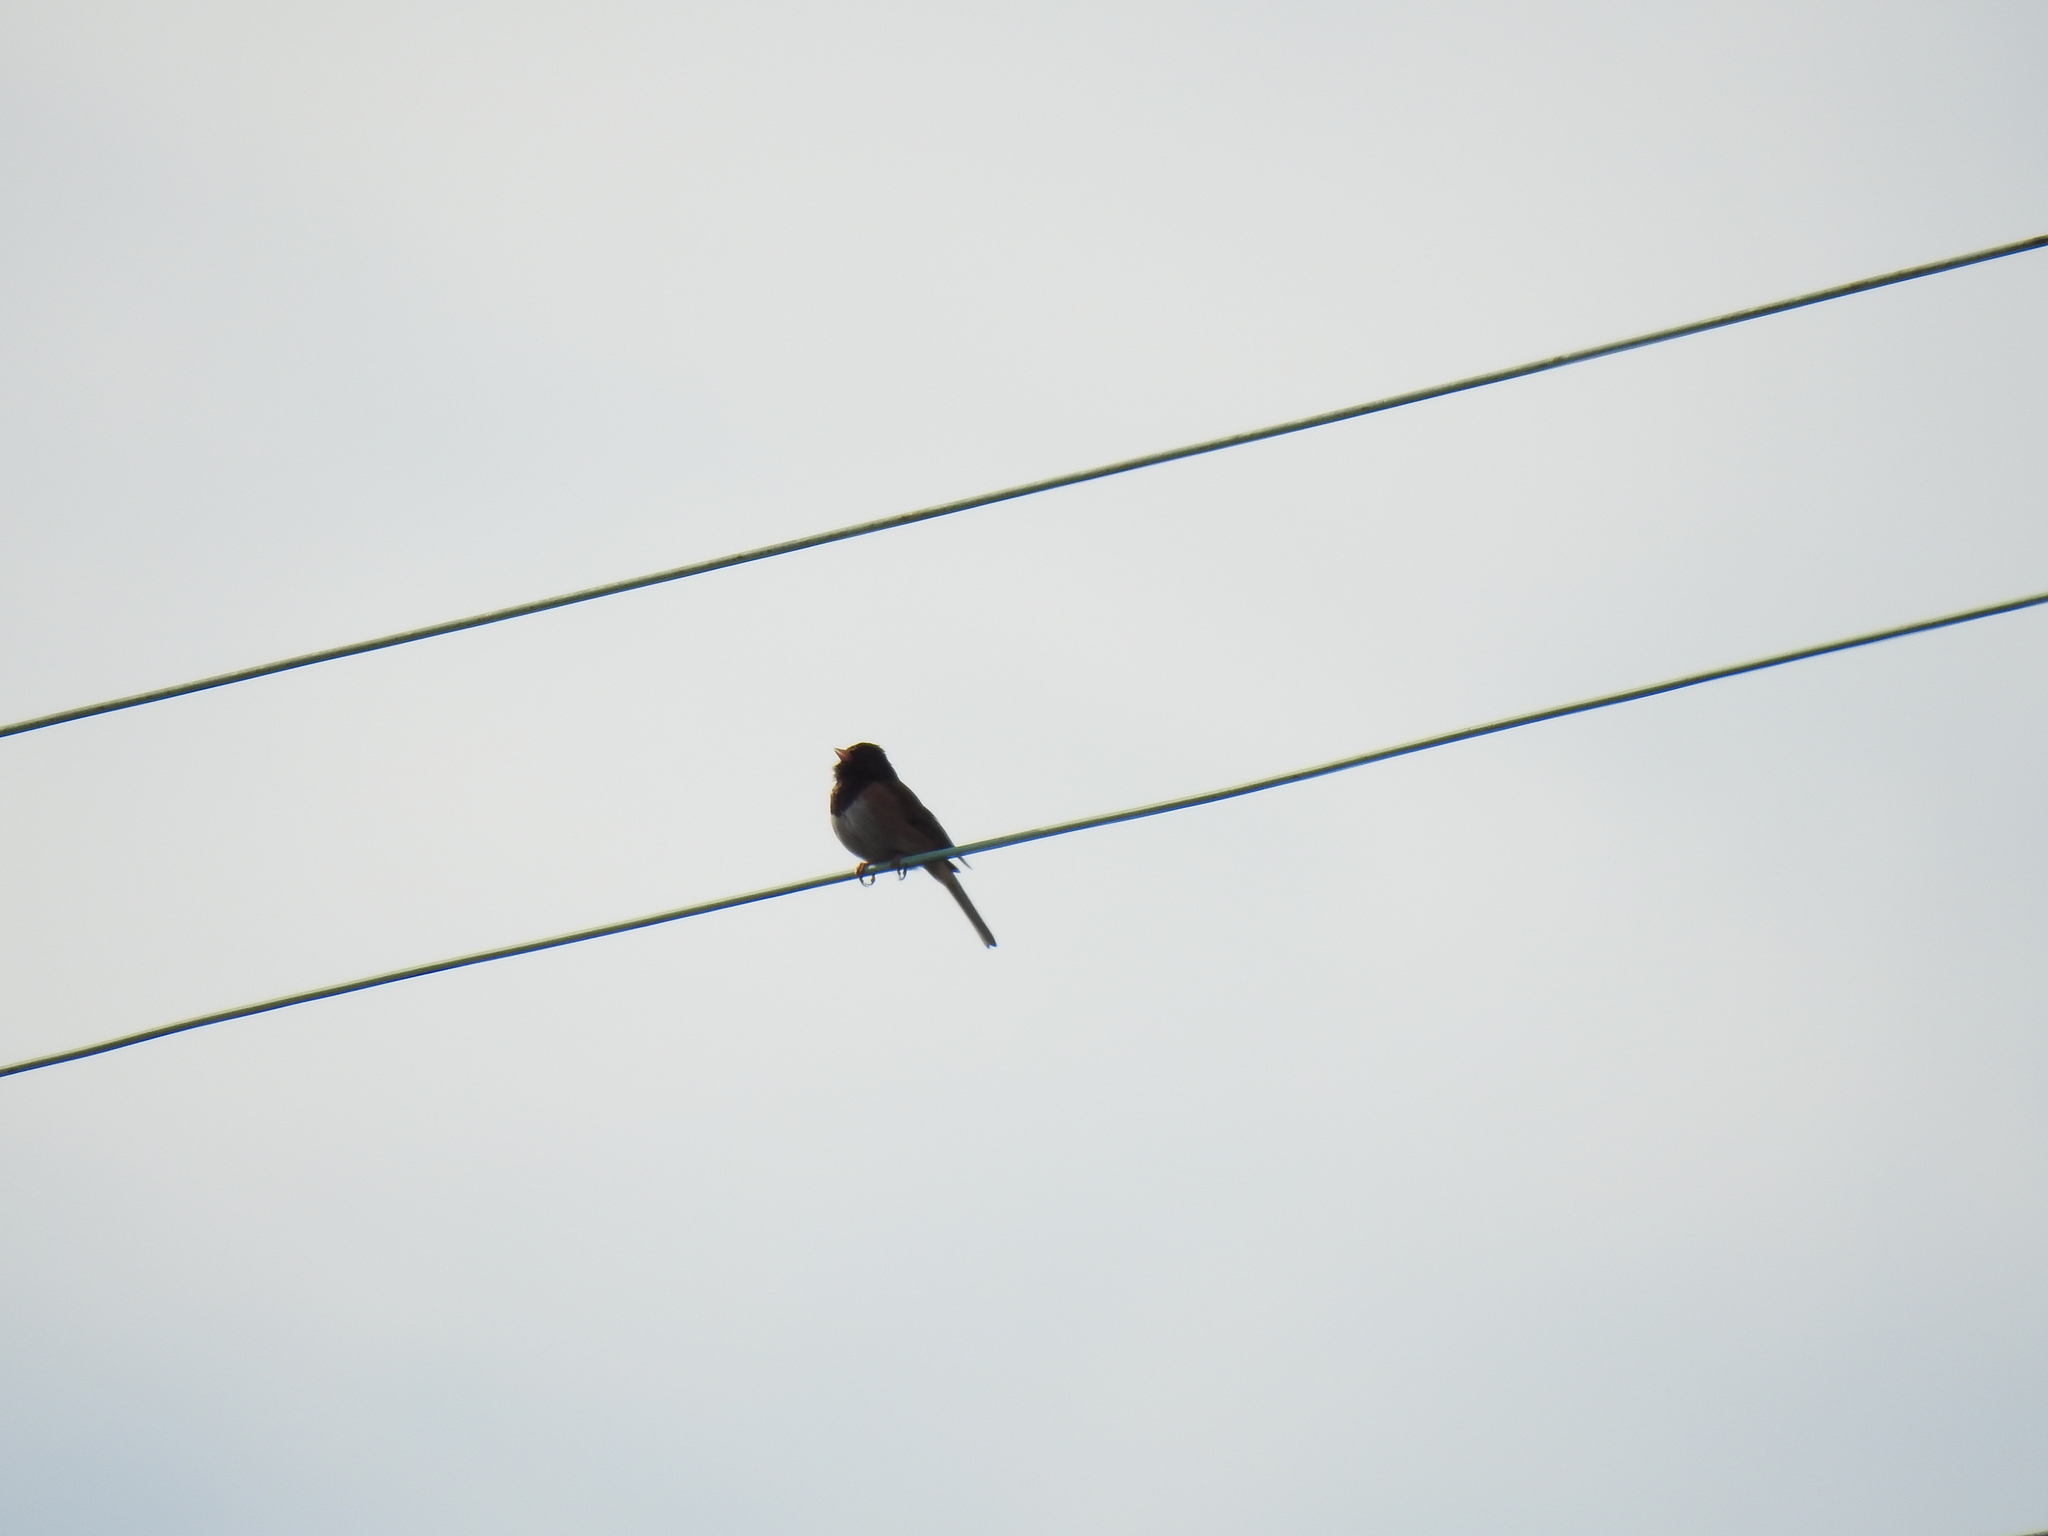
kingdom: Animalia
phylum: Chordata
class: Aves
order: Passeriformes
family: Passerellidae
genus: Junco
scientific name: Junco hyemalis
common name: Dark-eyed junco
